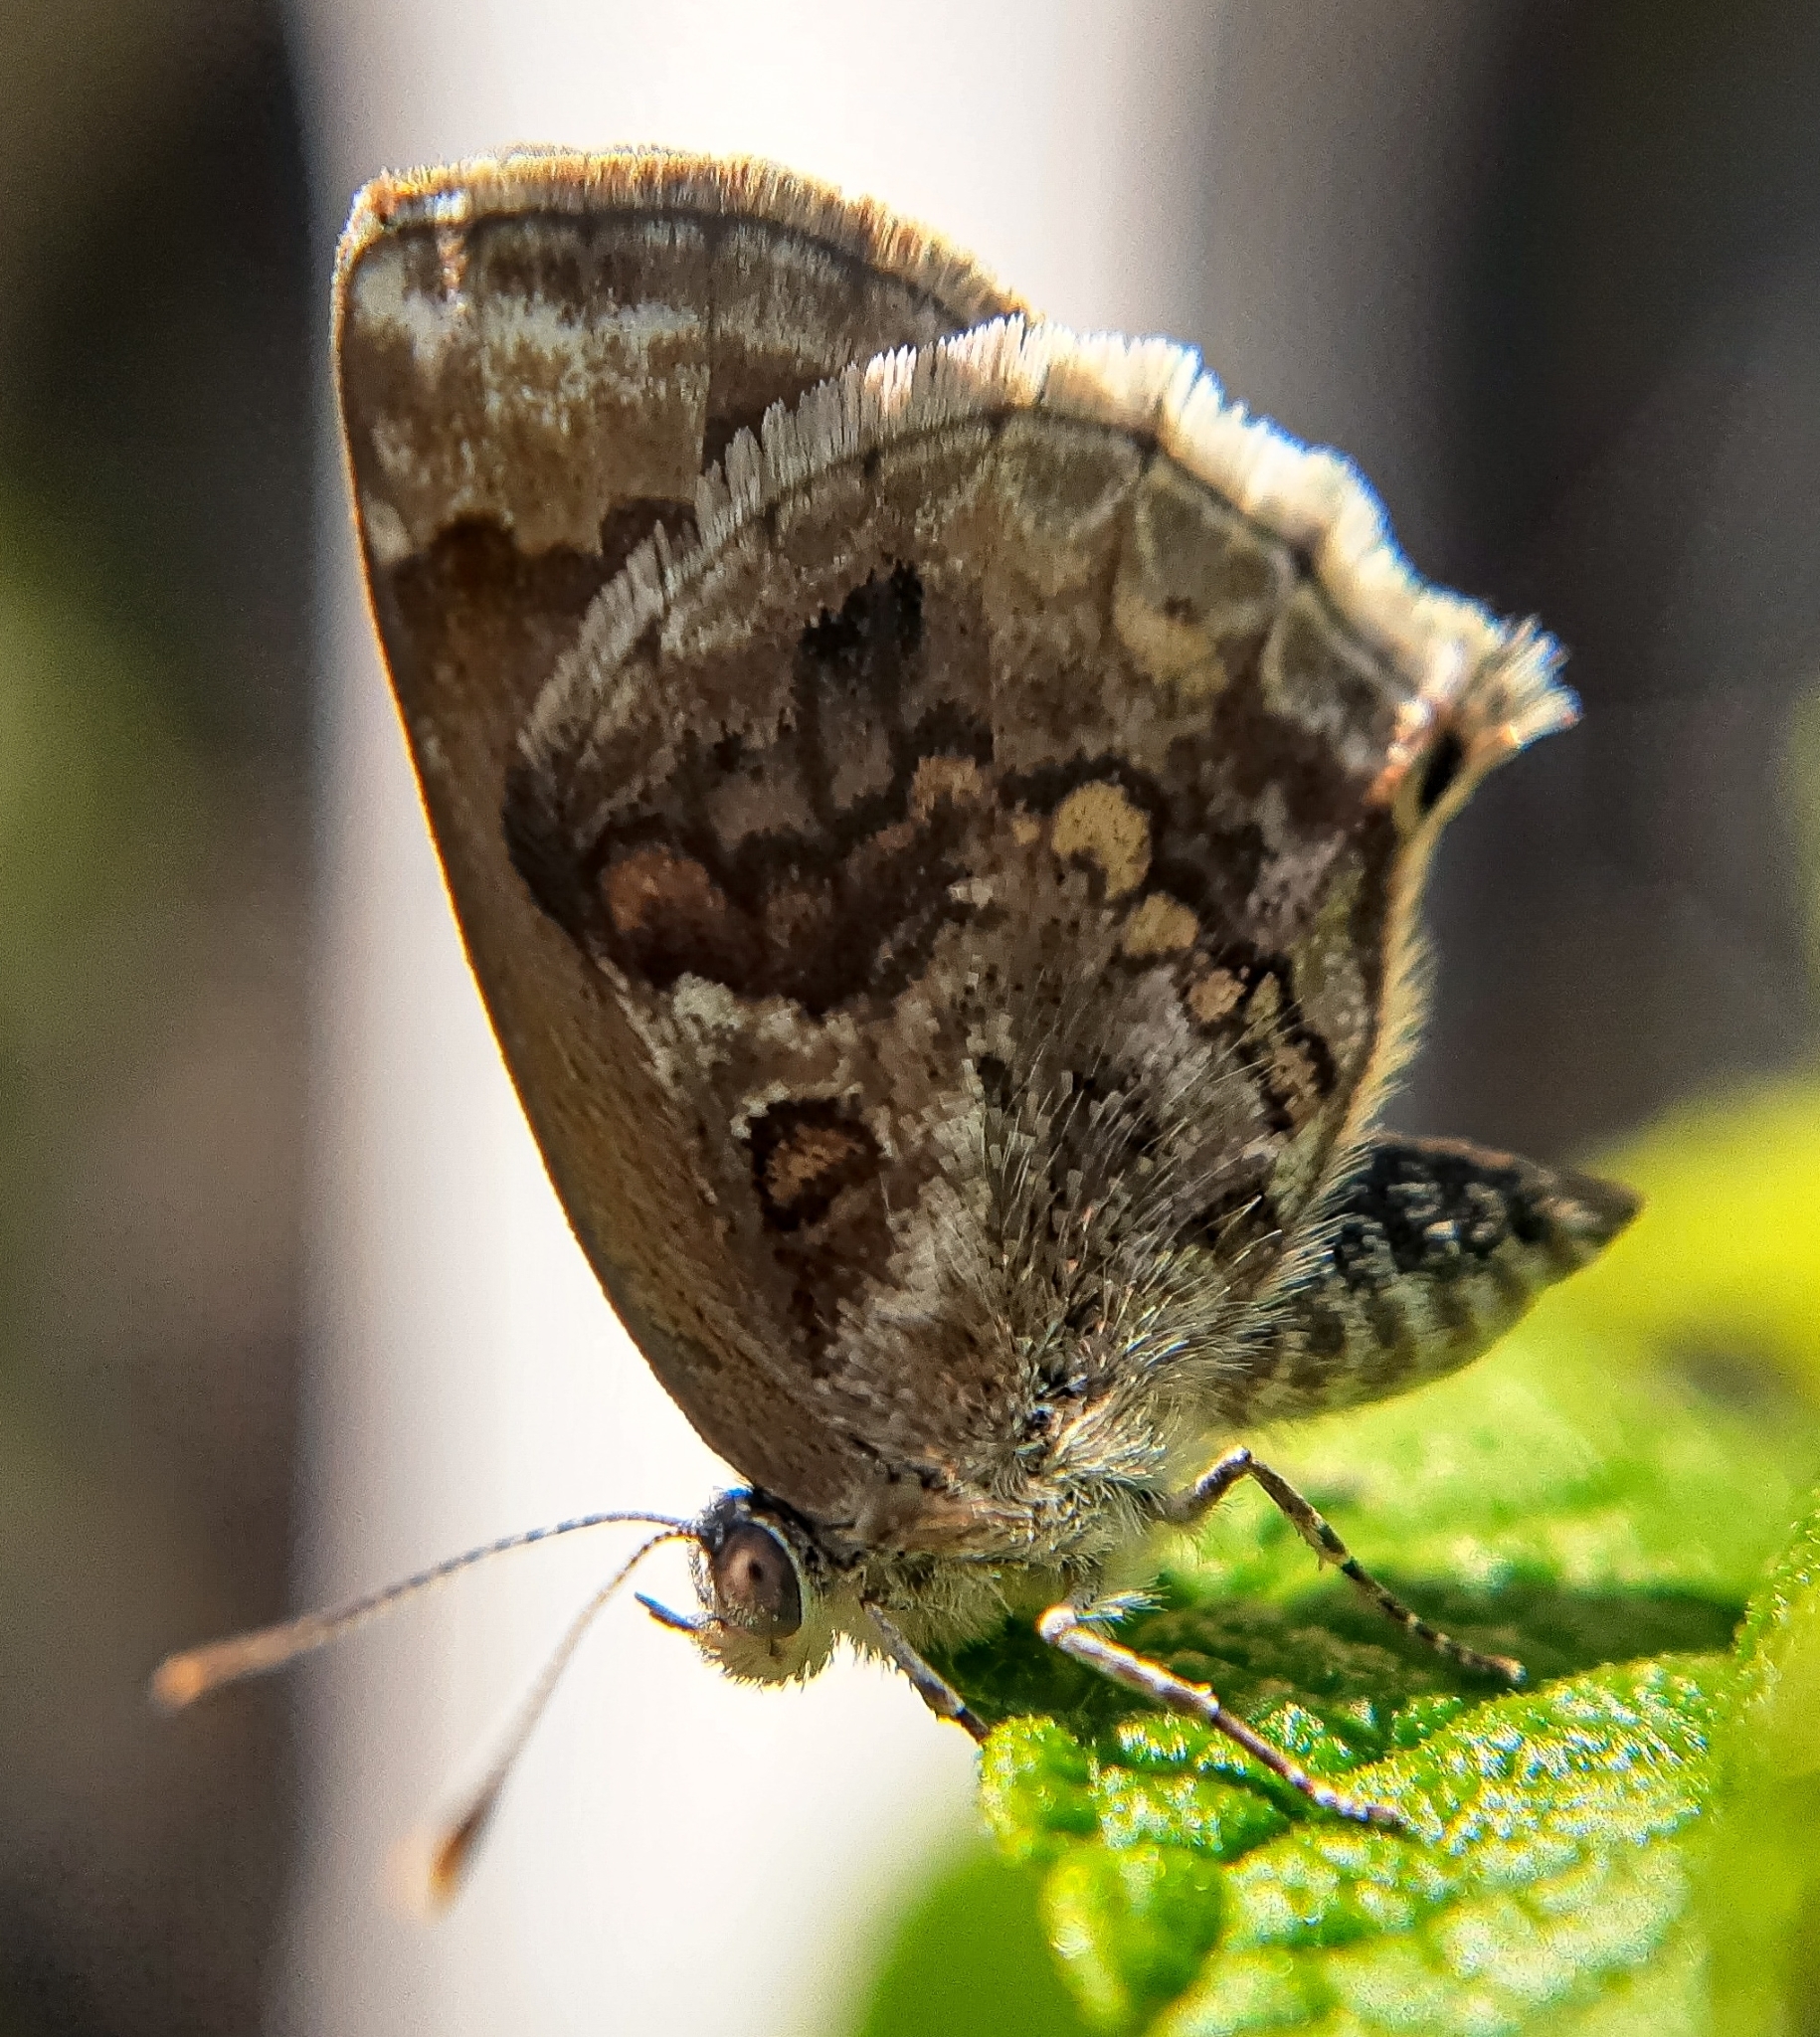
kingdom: Animalia
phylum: Arthropoda
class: Insecta
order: Lepidoptera
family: Lycaenidae
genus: Strymon
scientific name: Strymon bazochii
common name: Lantana scrub-hairstreak
